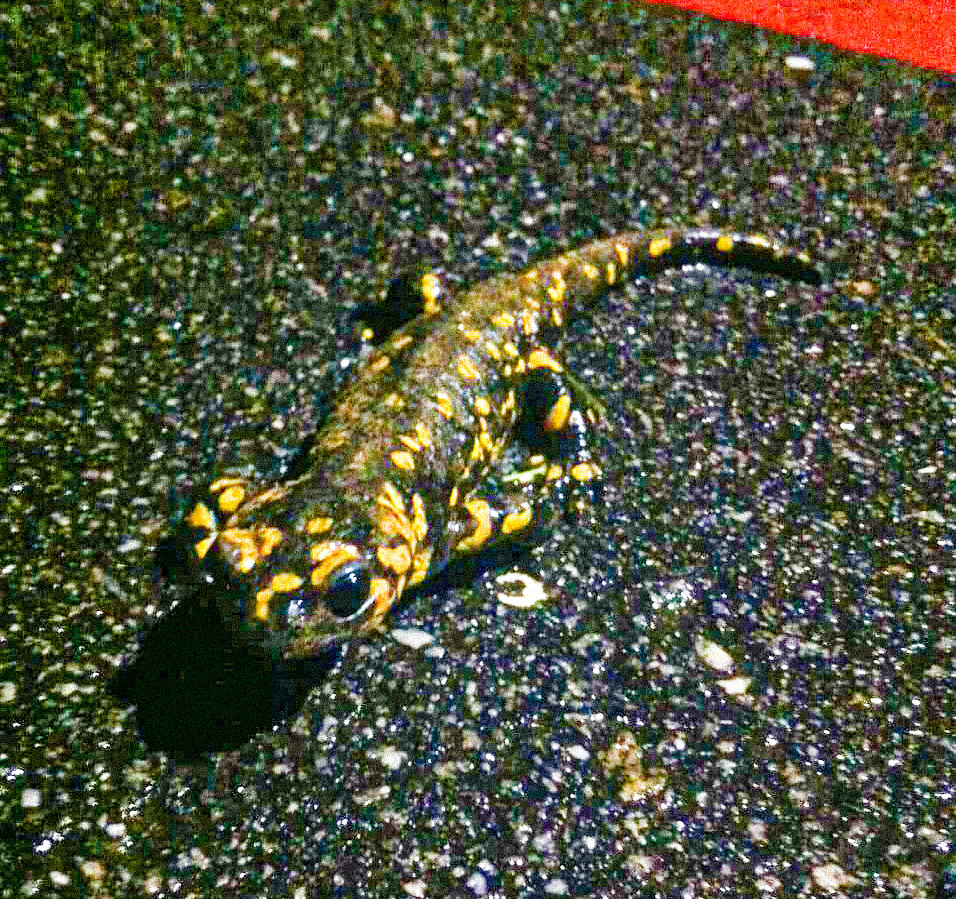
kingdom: Animalia
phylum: Chordata
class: Amphibia
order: Caudata
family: Salamandridae
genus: Salamandra
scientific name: Salamandra salamandra
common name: Fire salamander
